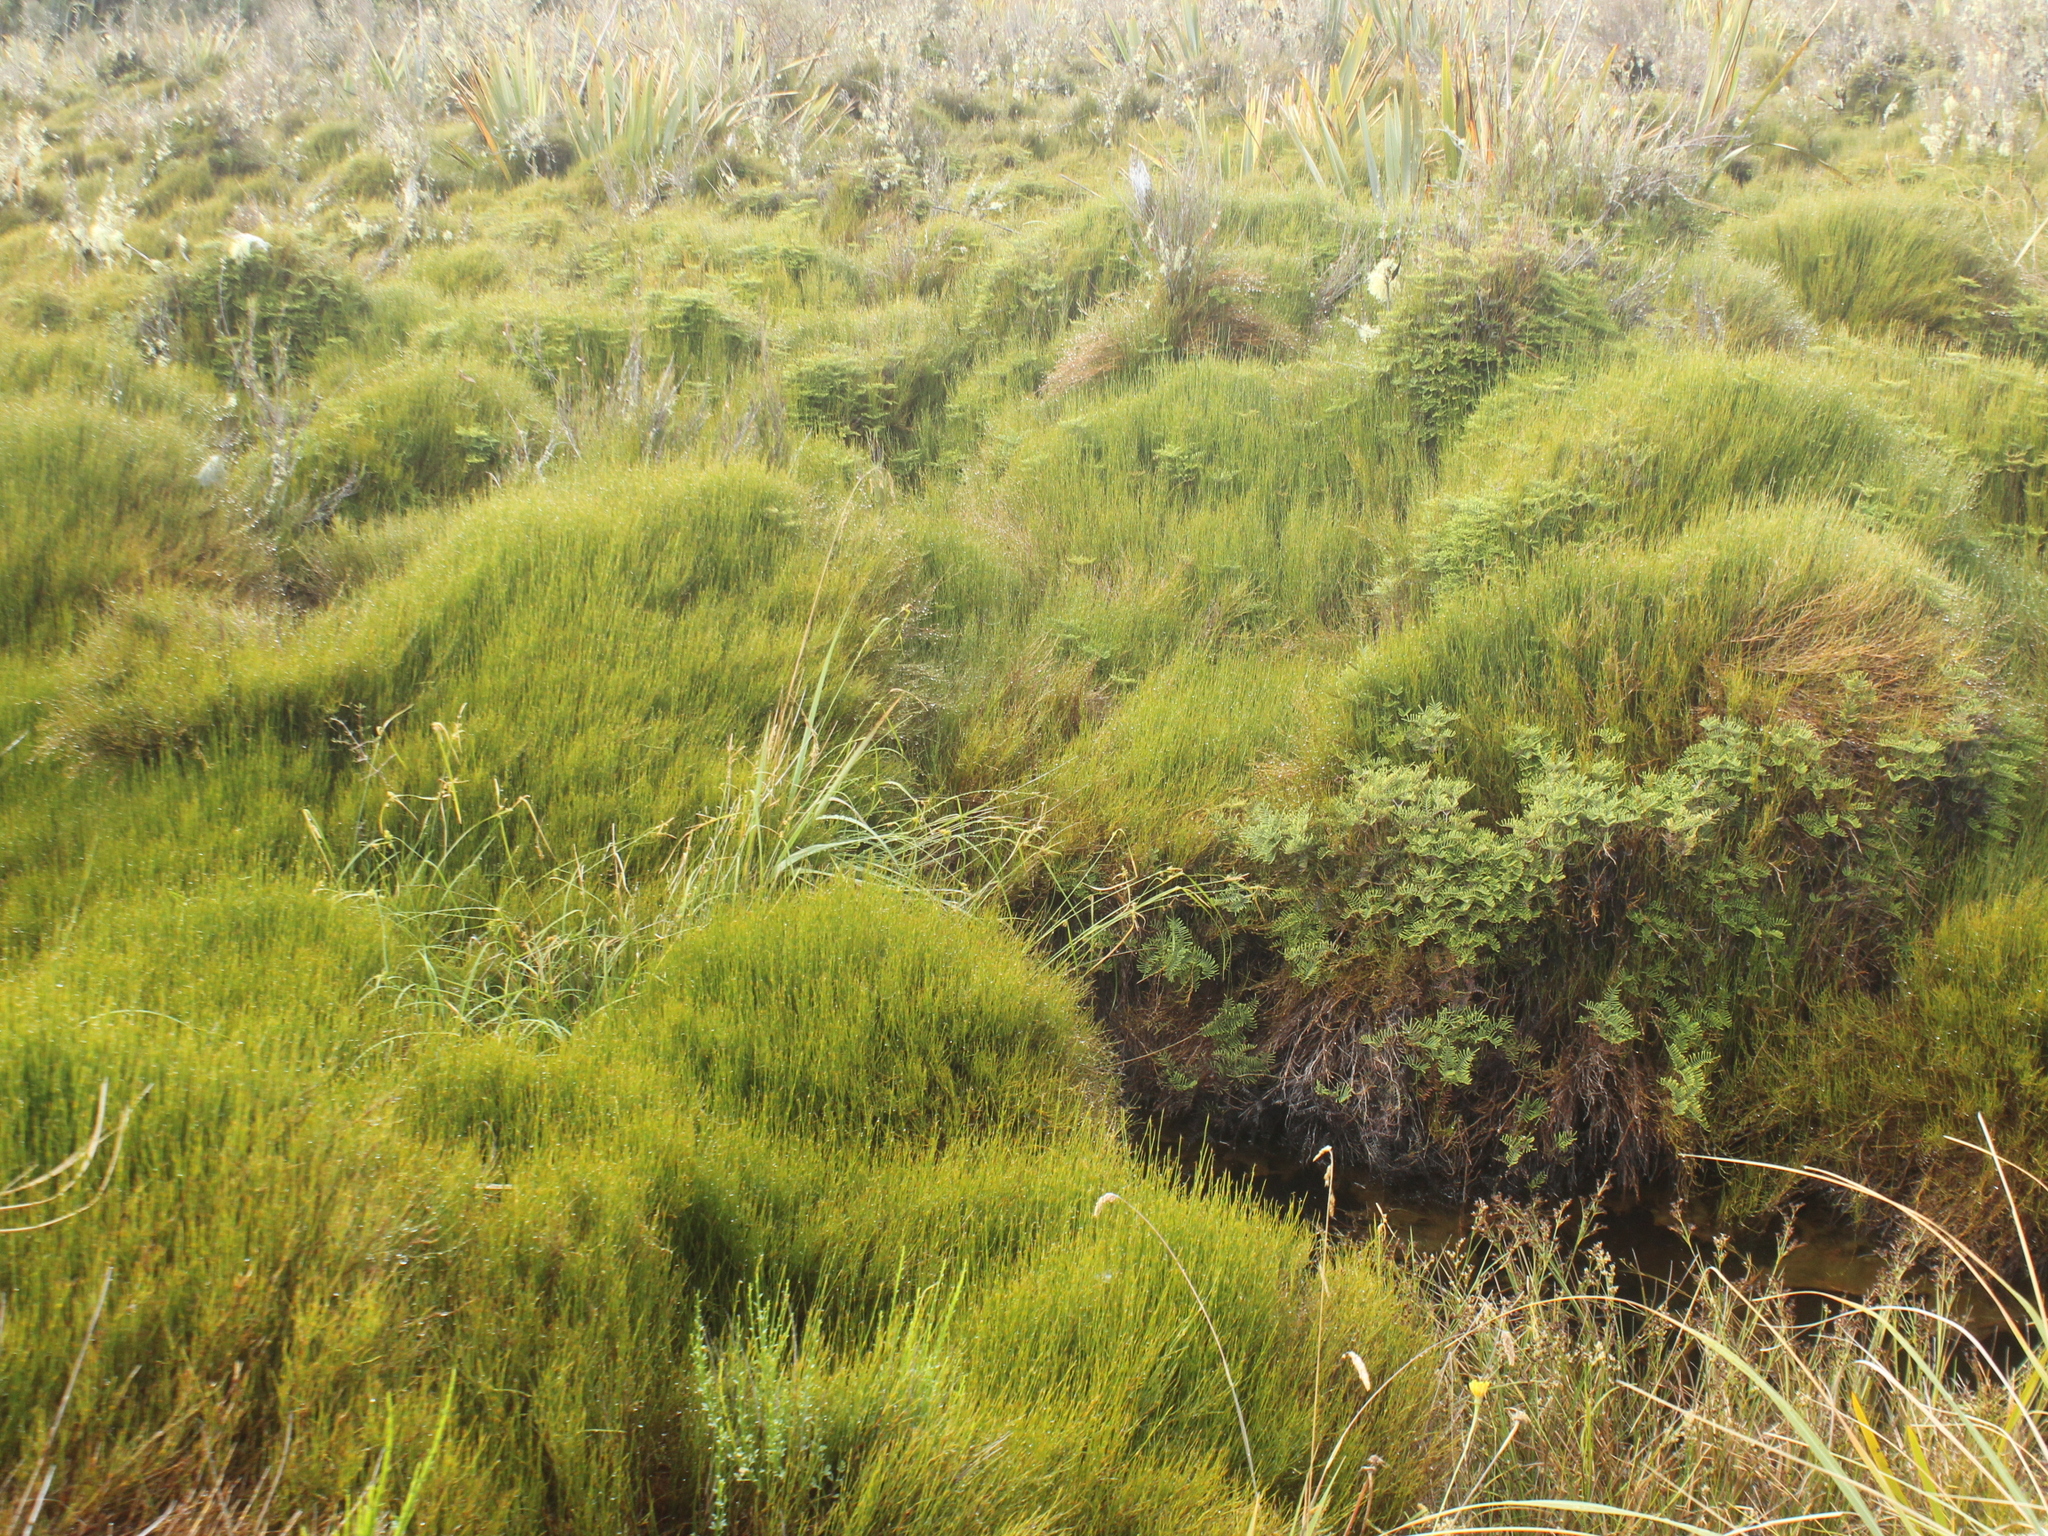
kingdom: Plantae
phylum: Tracheophyta
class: Liliopsida
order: Poales
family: Restionaceae
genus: Empodisma
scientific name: Empodisma minus
